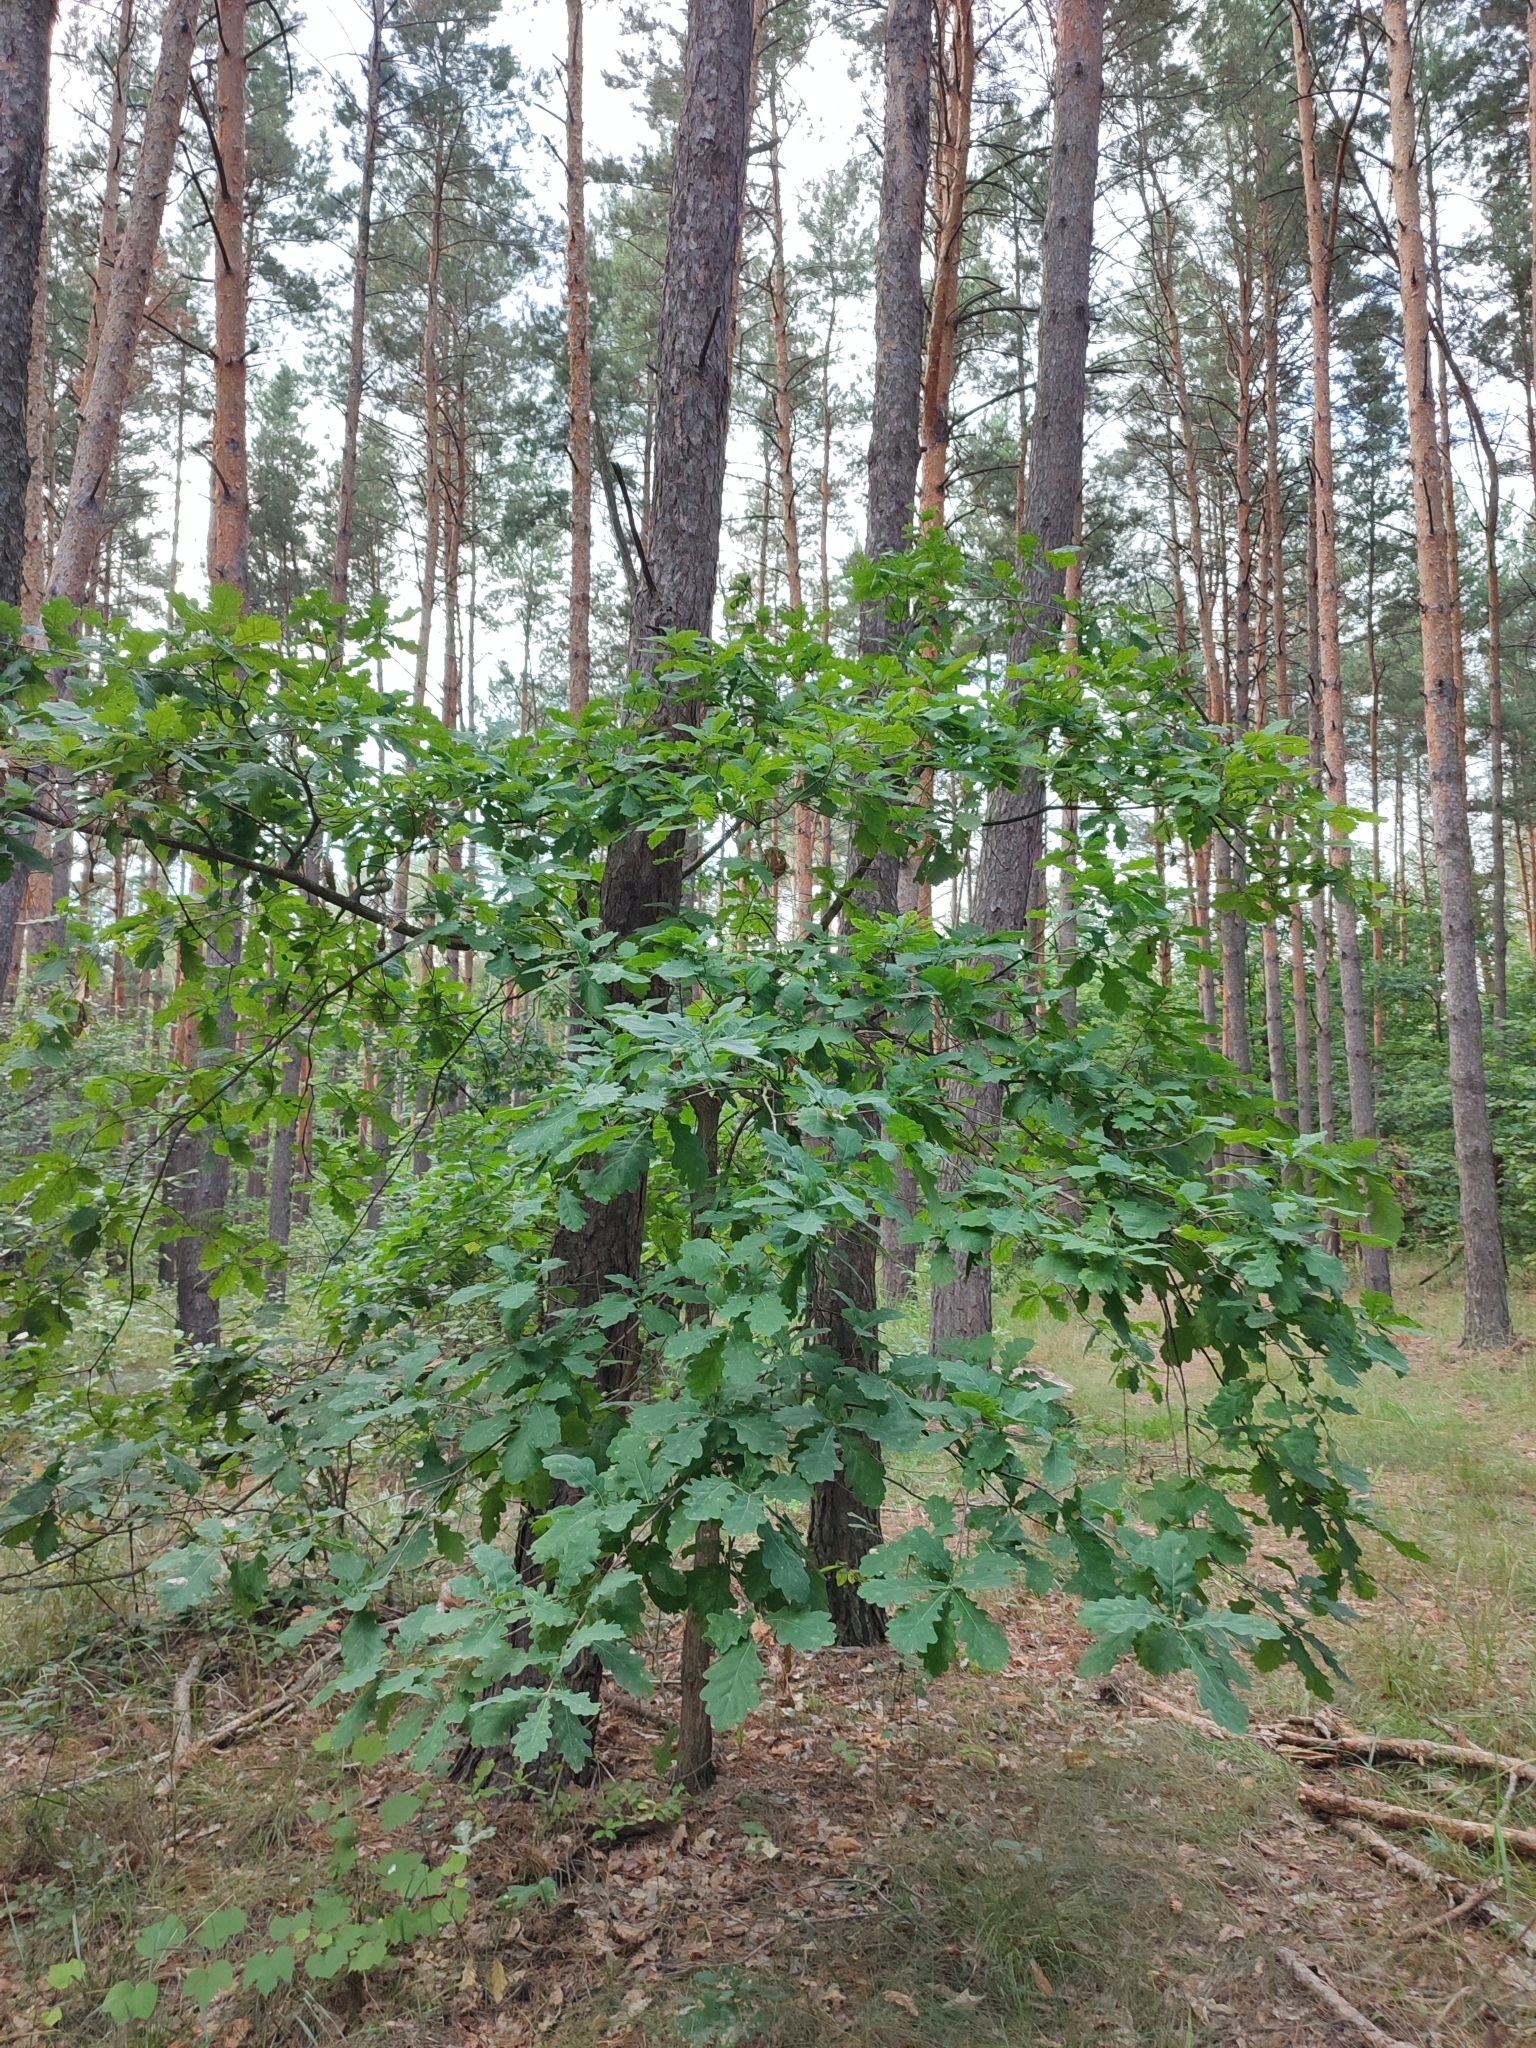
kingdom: Plantae
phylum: Tracheophyta
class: Magnoliopsida
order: Fagales
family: Fagaceae
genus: Quercus
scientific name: Quercus robur
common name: Pedunculate oak
